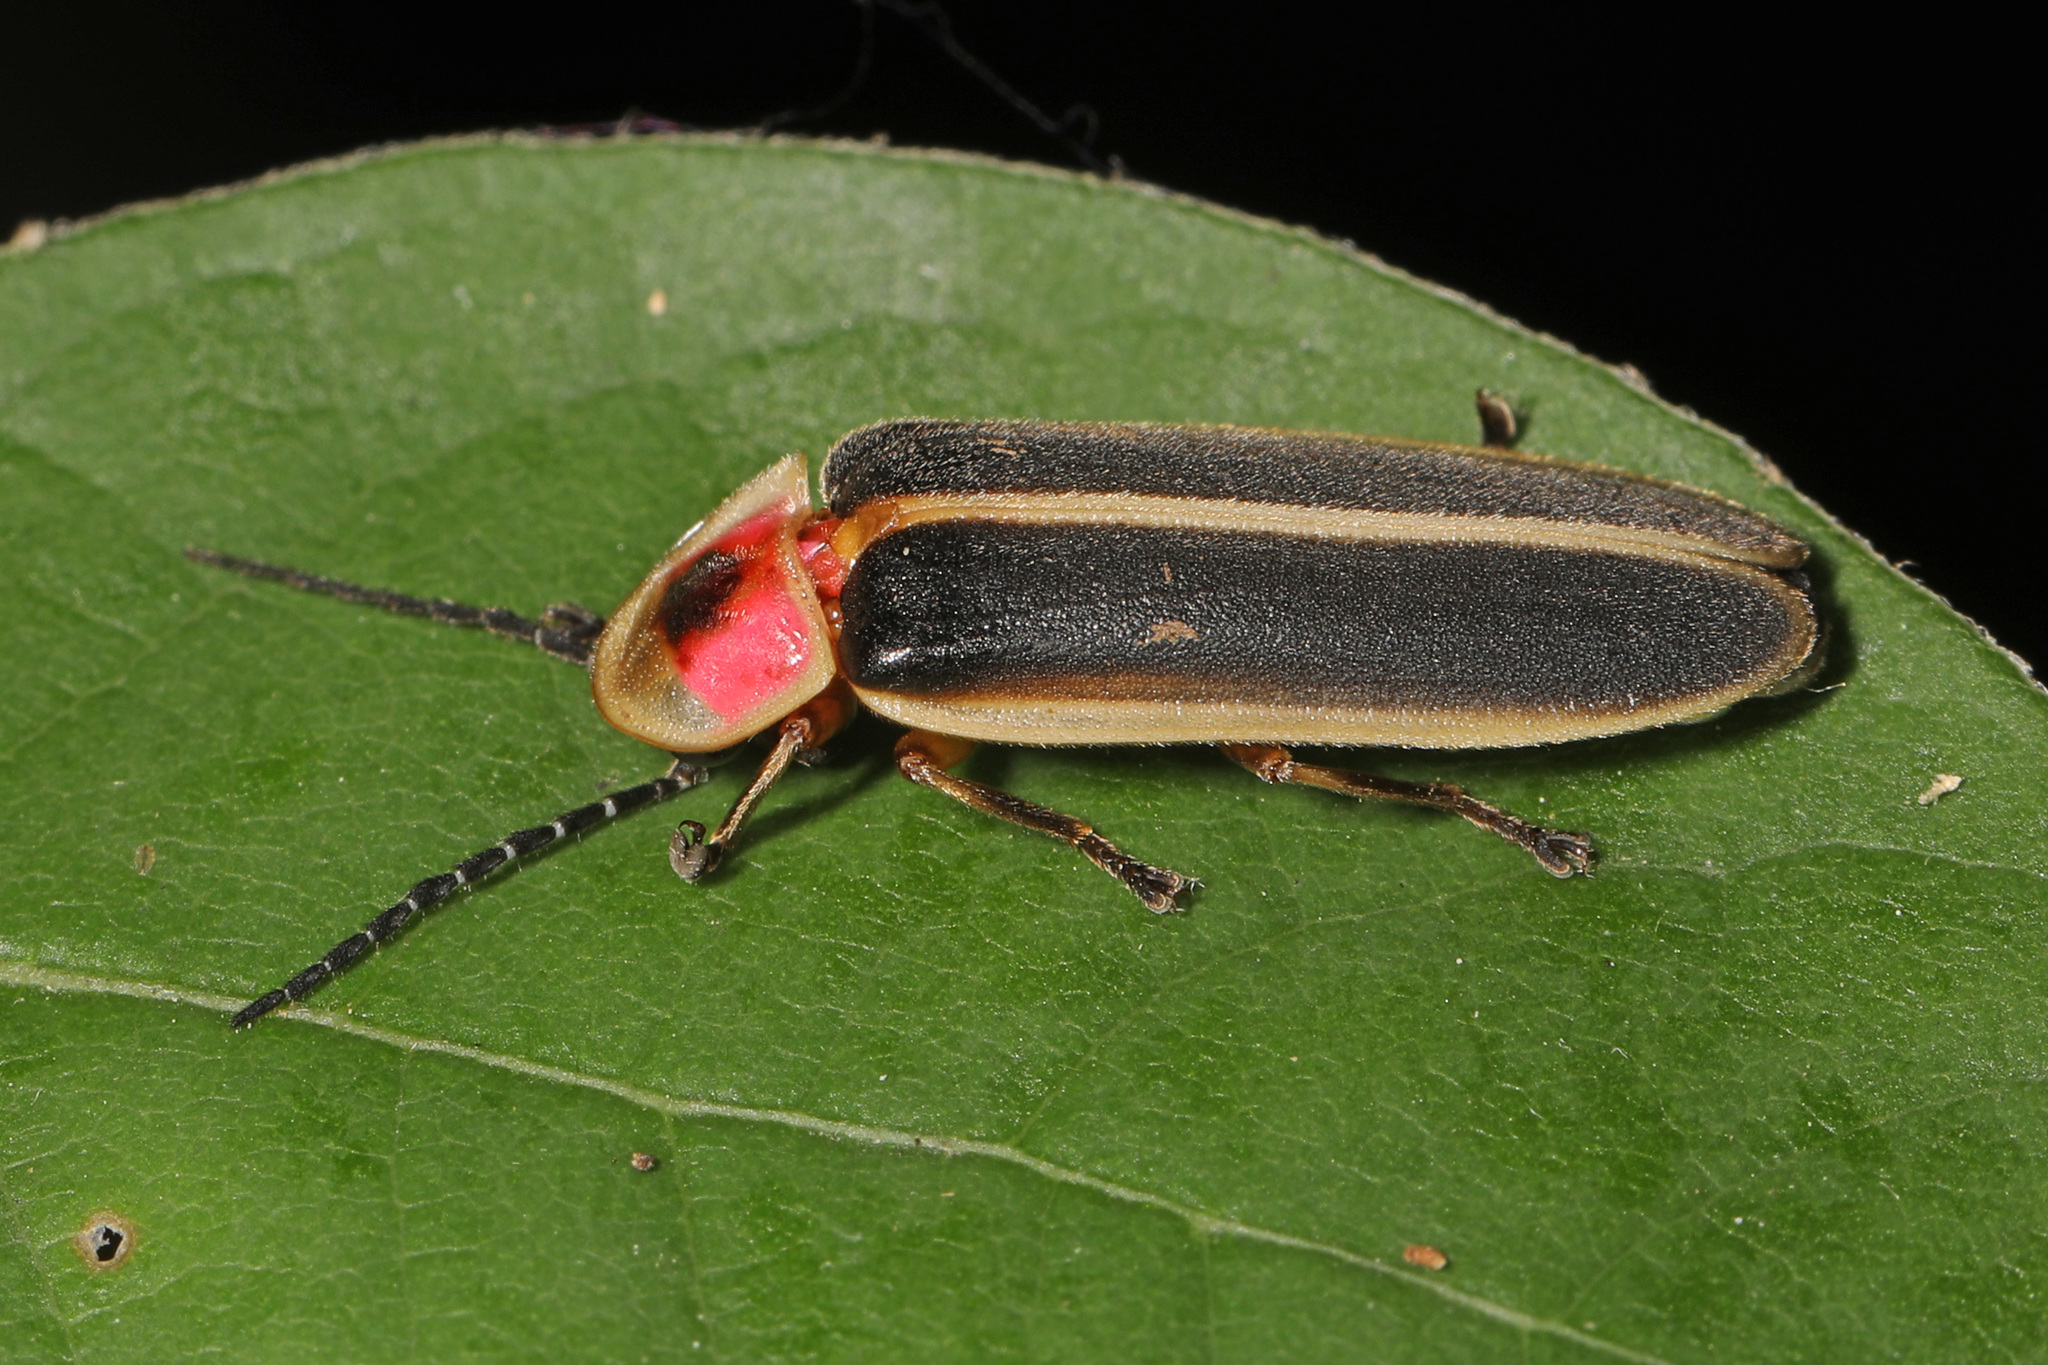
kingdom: Animalia
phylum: Arthropoda
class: Insecta
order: Coleoptera
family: Lampyridae
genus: Photinus
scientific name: Photinus pyralis
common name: Big dipper firefly
